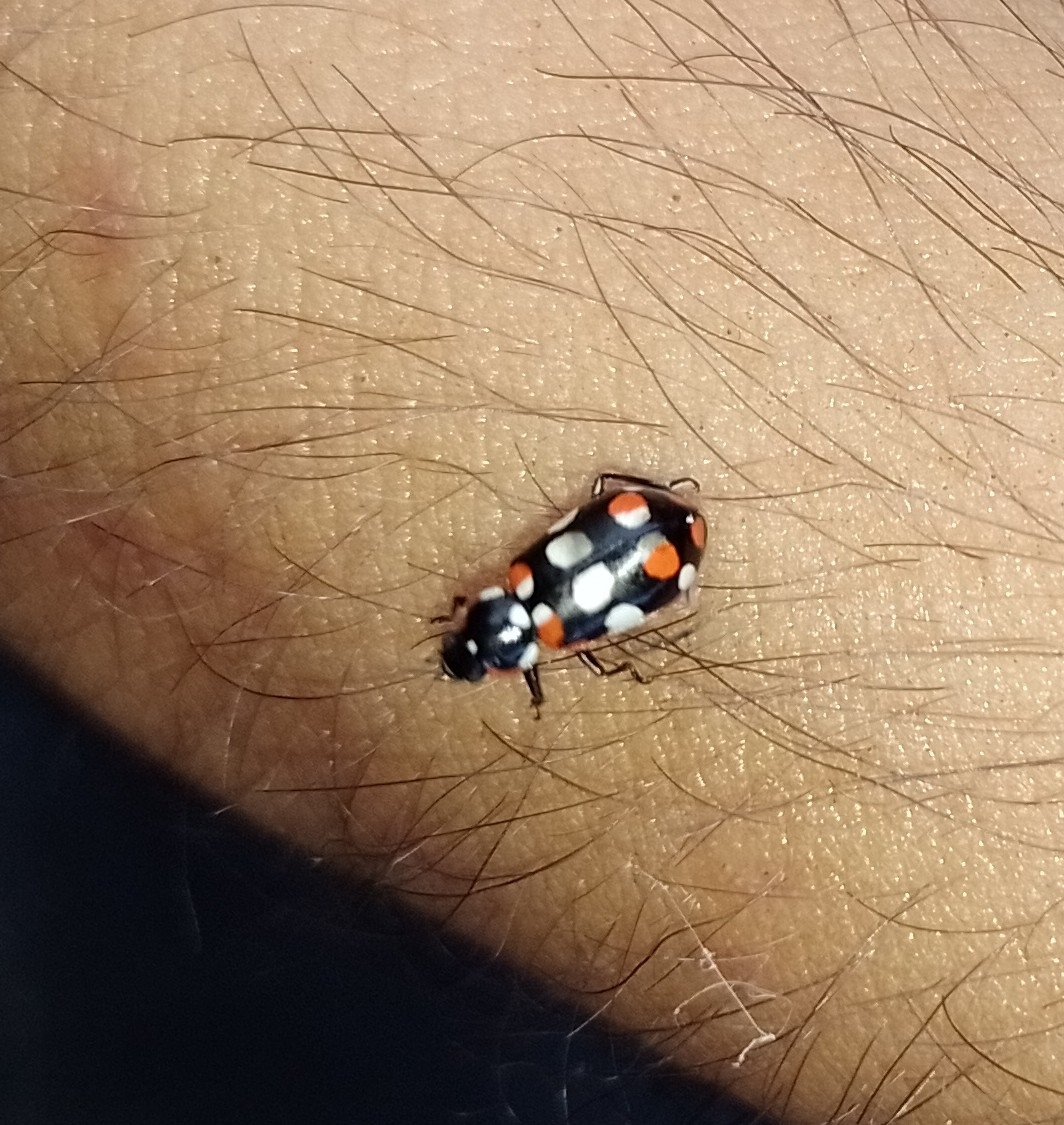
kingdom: Animalia
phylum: Arthropoda
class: Insecta
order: Coleoptera
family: Coccinellidae
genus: Eriopis
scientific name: Eriopis connexa
